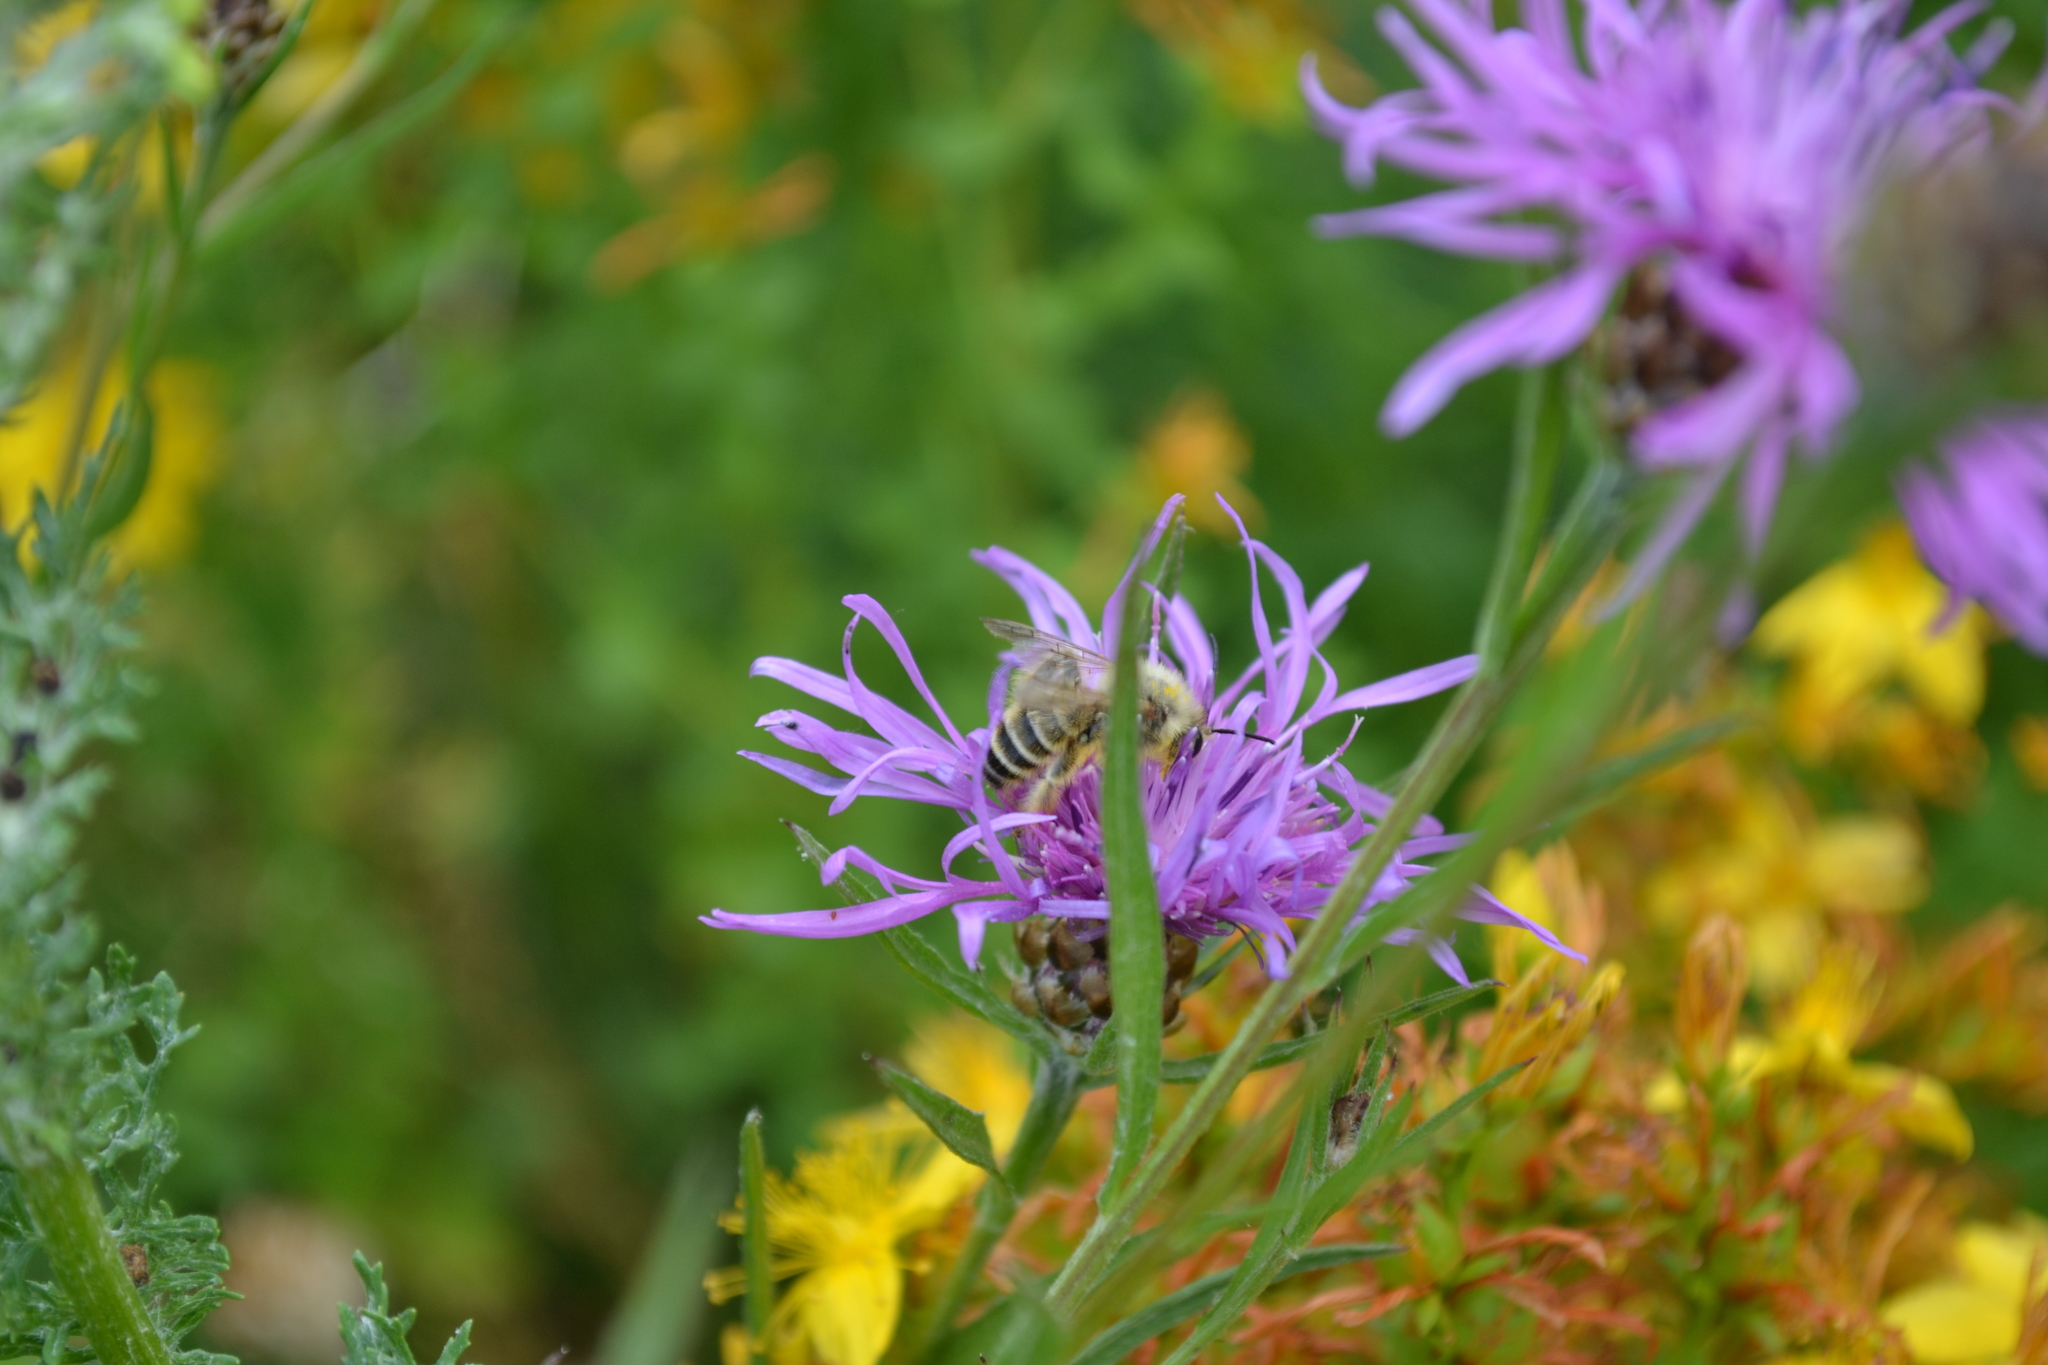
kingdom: Animalia
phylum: Arthropoda
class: Insecta
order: Hymenoptera
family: Apidae
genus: Apis
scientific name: Apis mellifera
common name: Honey bee
